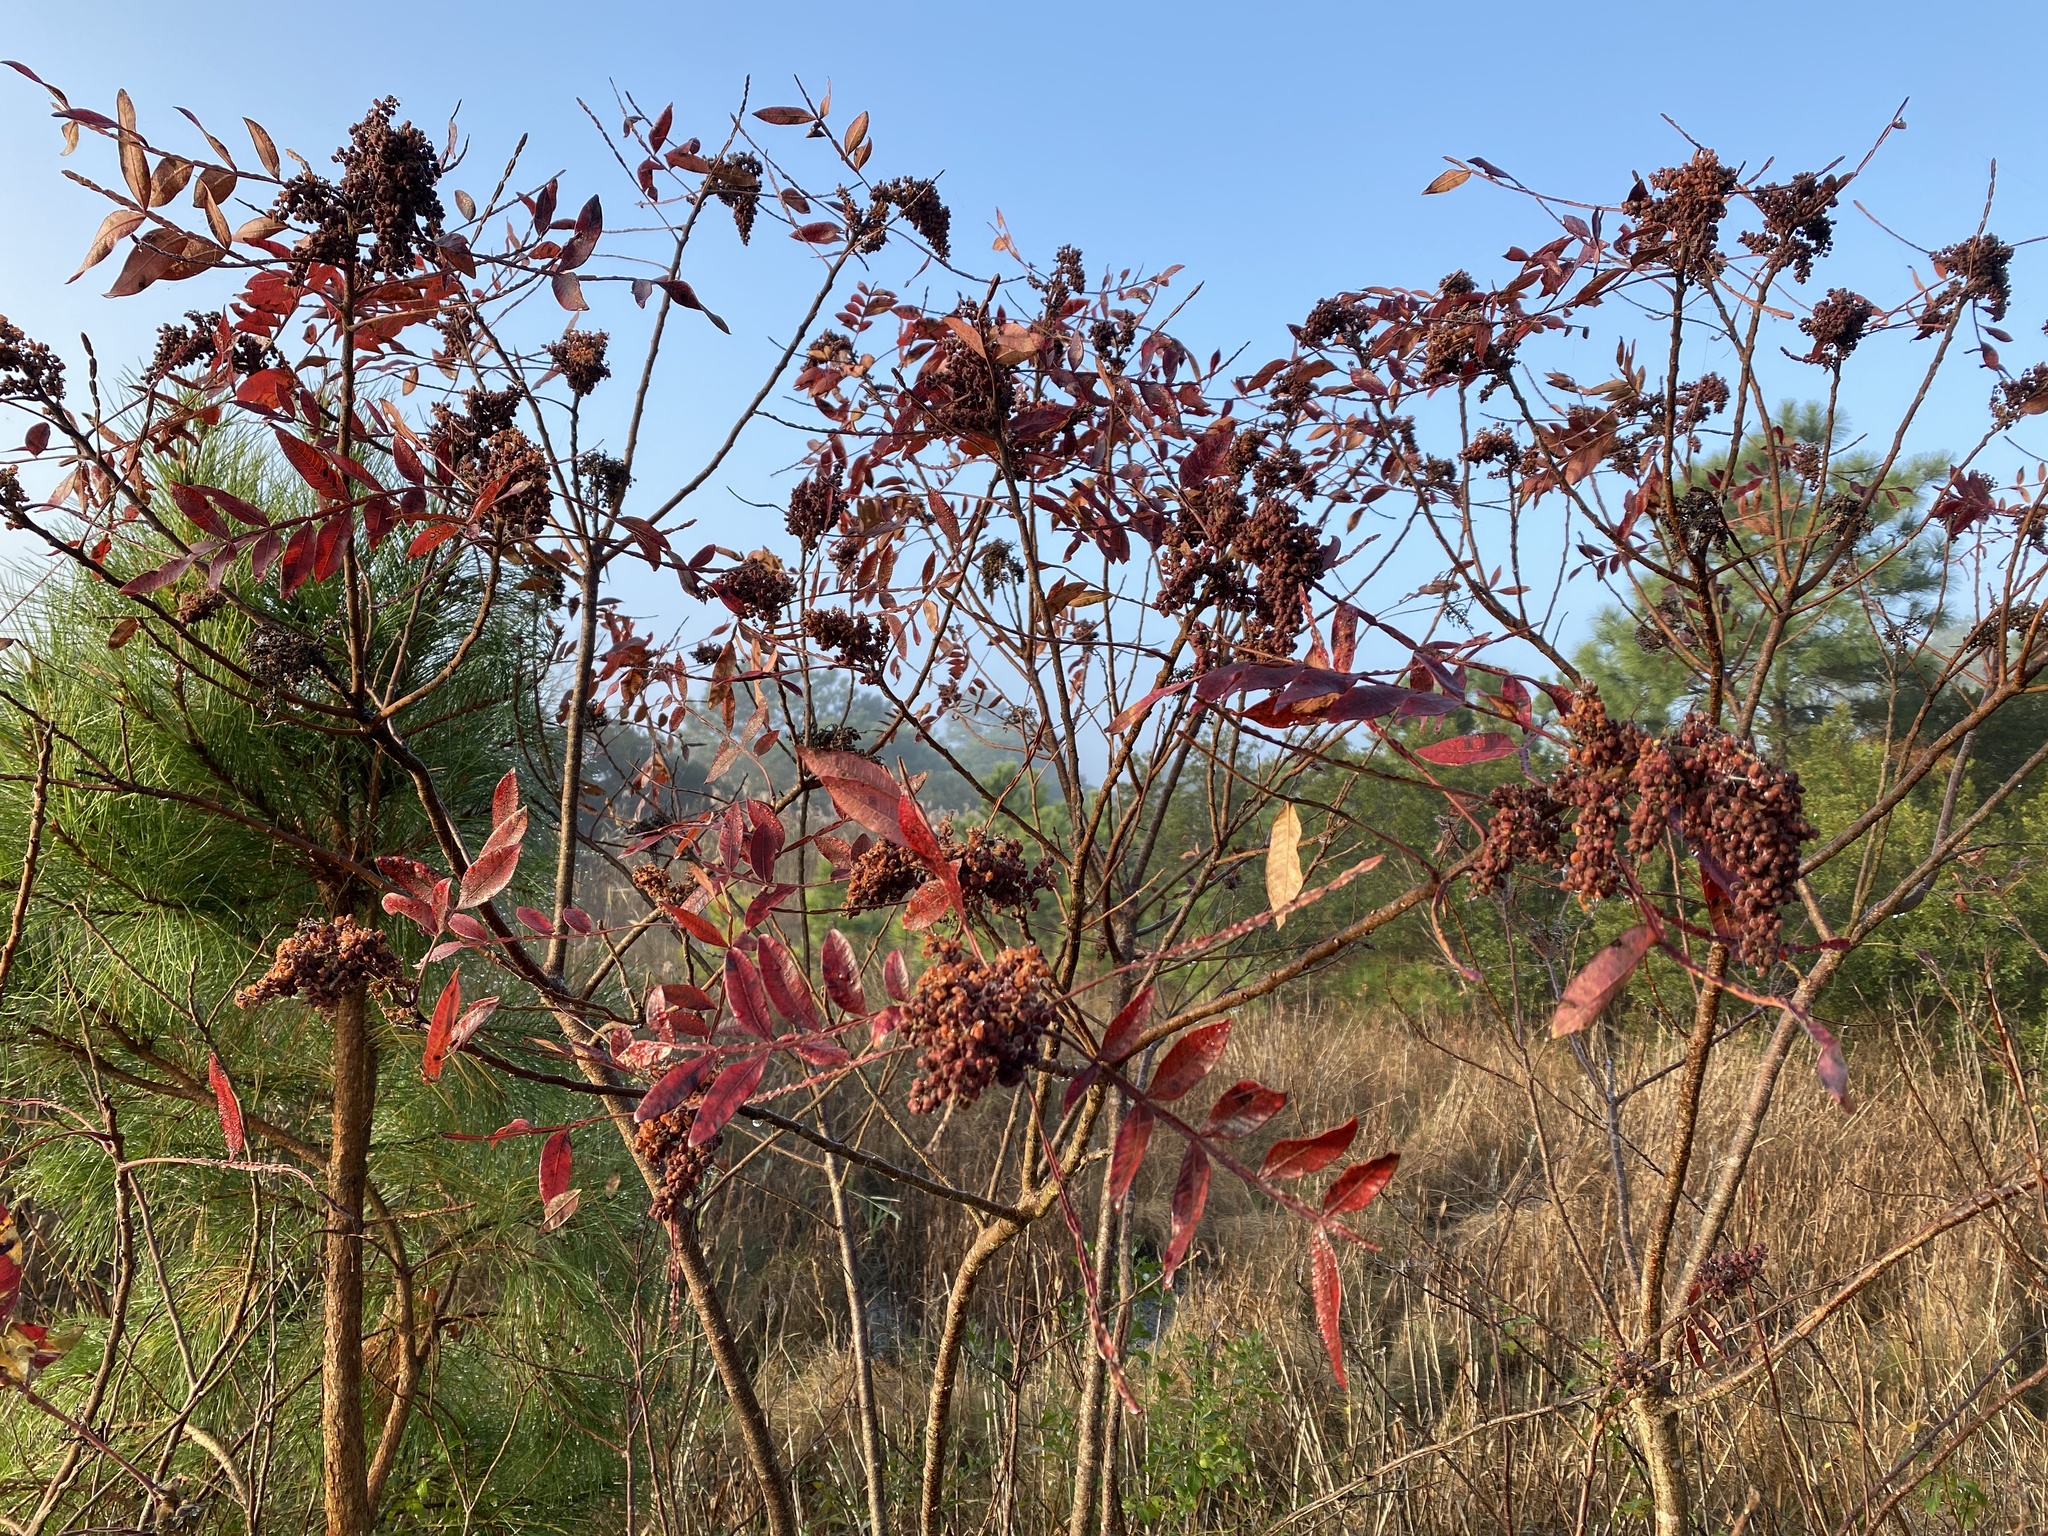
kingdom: Plantae
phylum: Tracheophyta
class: Magnoliopsida
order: Sapindales
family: Anacardiaceae
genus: Rhus
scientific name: Rhus copallina
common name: Shining sumac
